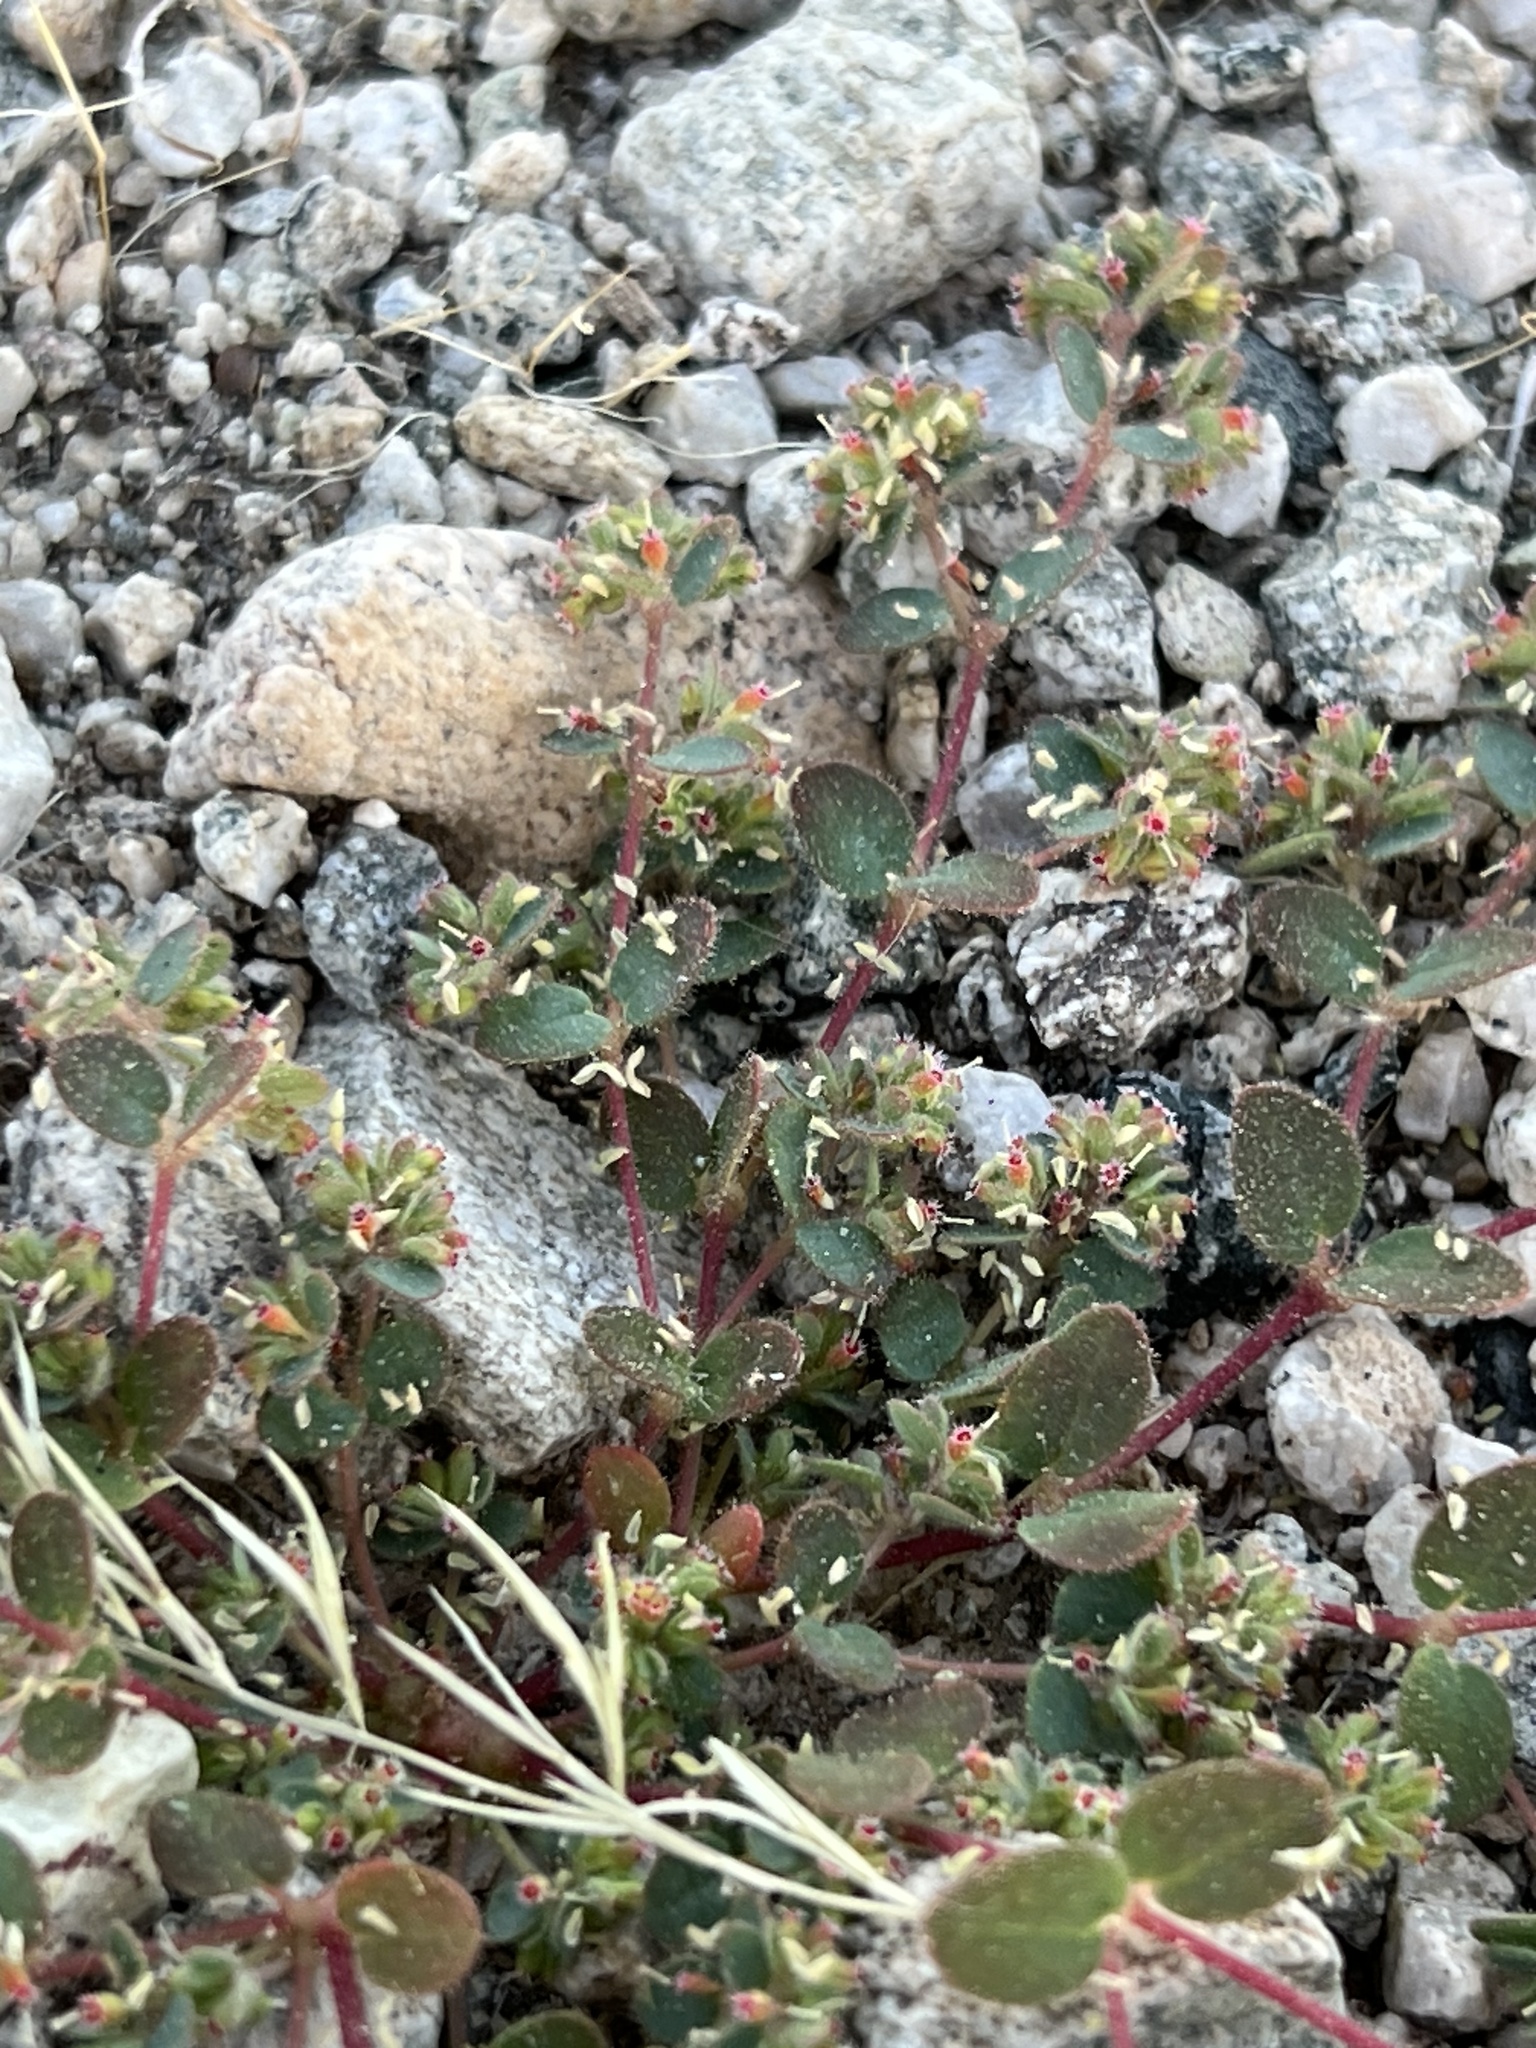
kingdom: Plantae
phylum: Tracheophyta
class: Magnoliopsida
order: Malpighiales
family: Euphorbiaceae
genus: Euphorbia
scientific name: Euphorbia setiloba
